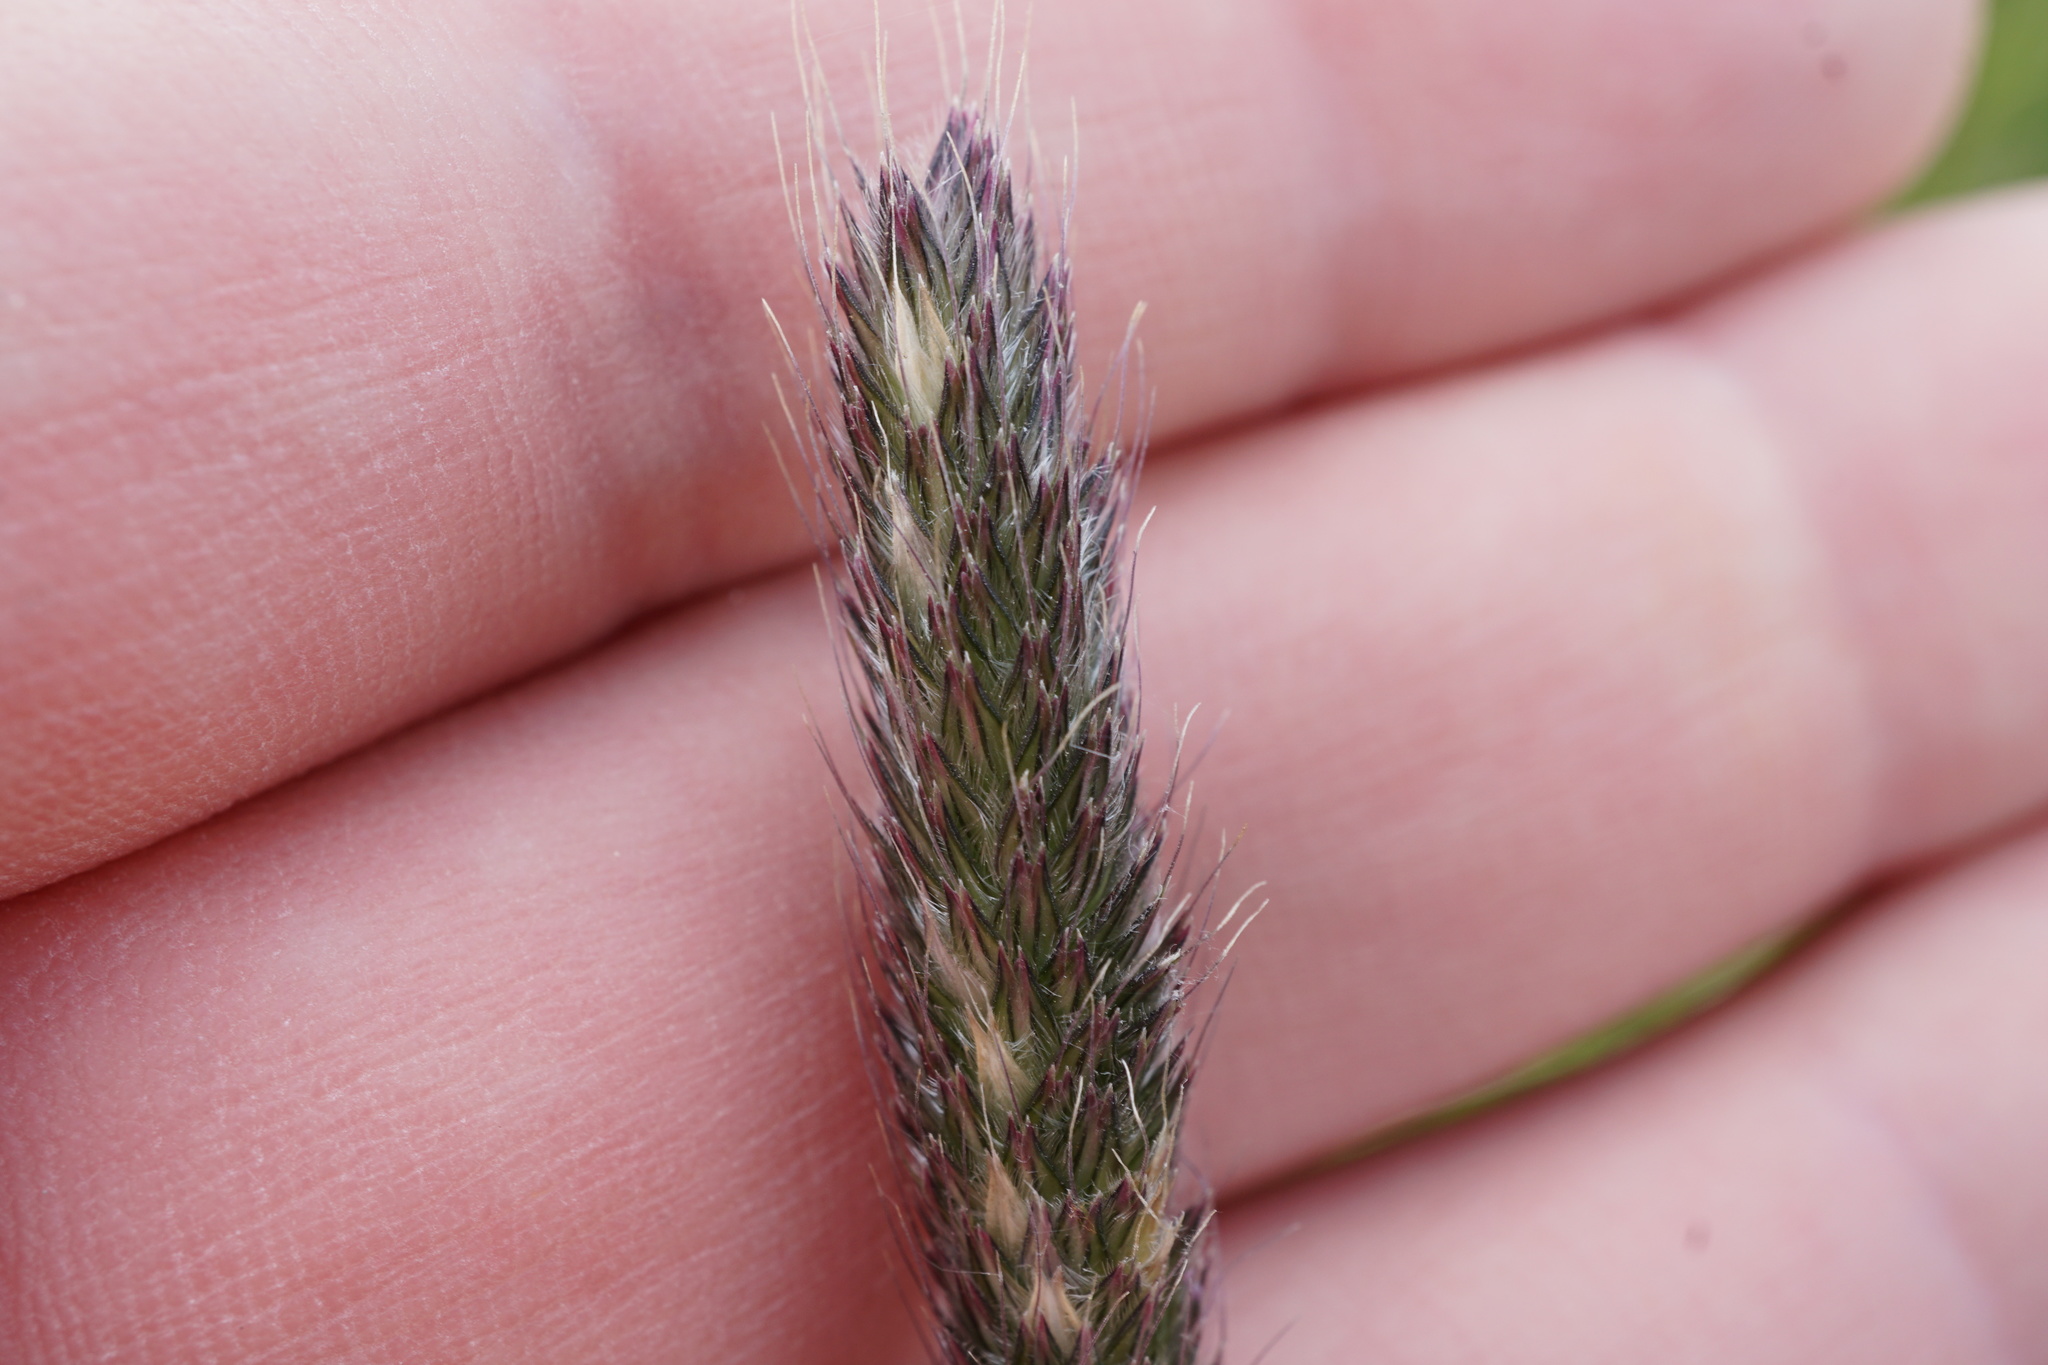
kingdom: Plantae
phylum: Tracheophyta
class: Liliopsida
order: Poales
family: Poaceae
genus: Alopecurus
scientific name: Alopecurus pratensis
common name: Meadow foxtail
